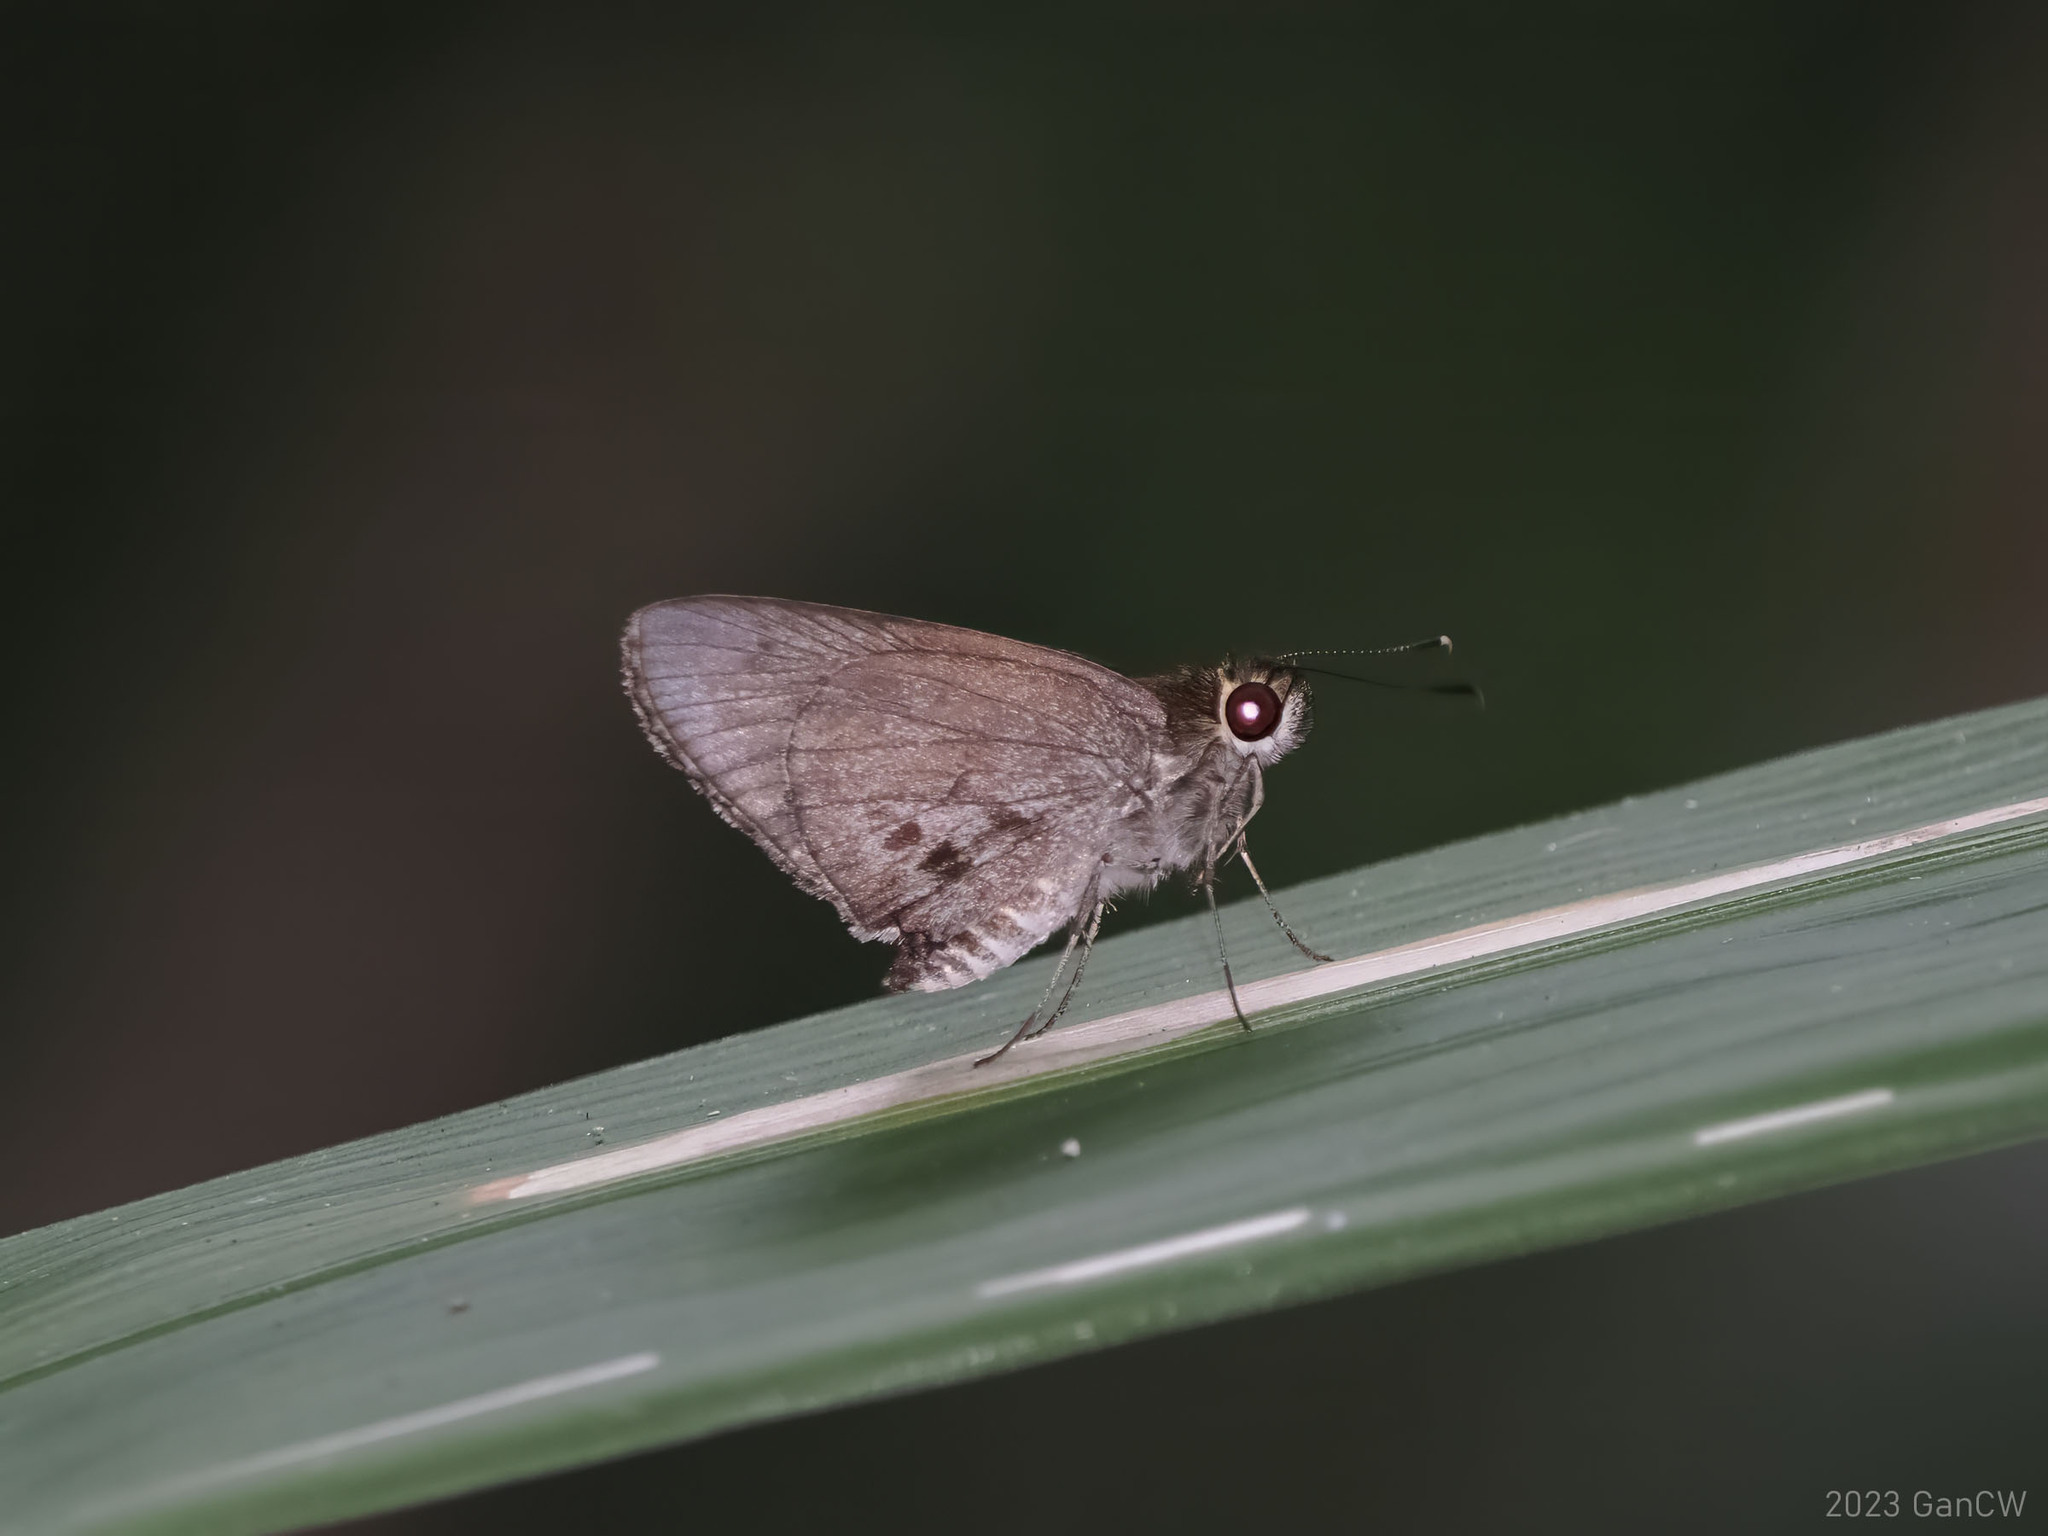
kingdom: Animalia
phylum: Arthropoda
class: Insecta
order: Lepidoptera
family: Hesperiidae
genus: Suastus
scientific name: Suastus migreus
